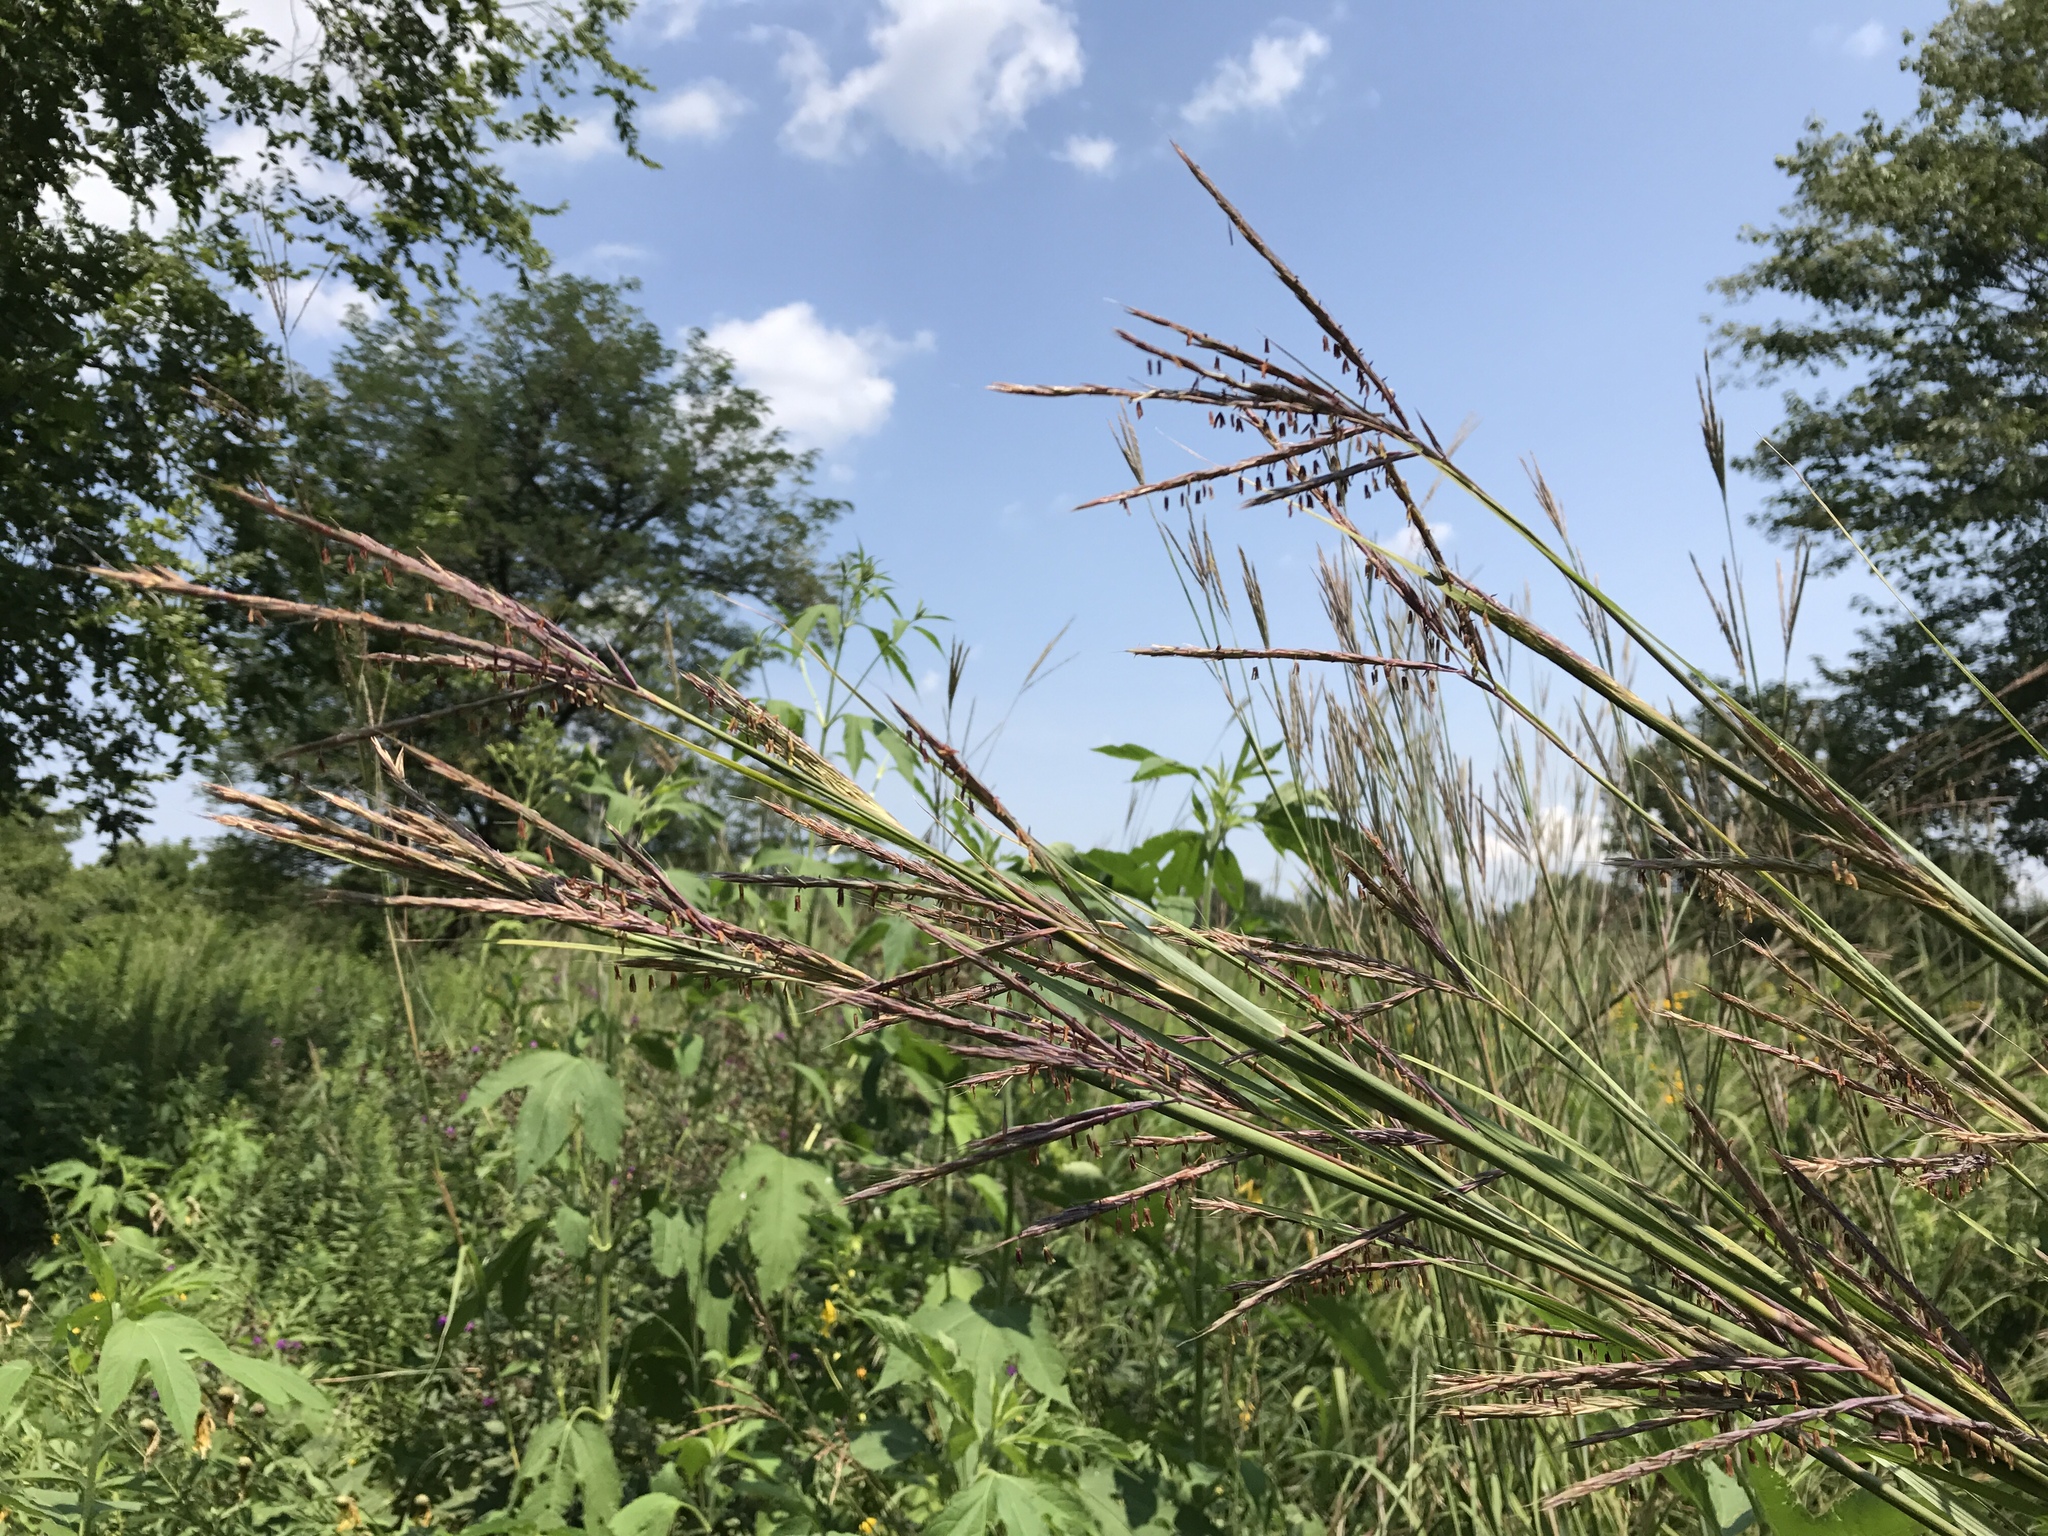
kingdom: Plantae
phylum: Tracheophyta
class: Liliopsida
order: Poales
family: Poaceae
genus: Andropogon
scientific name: Andropogon gerardi
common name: Big bluestem
